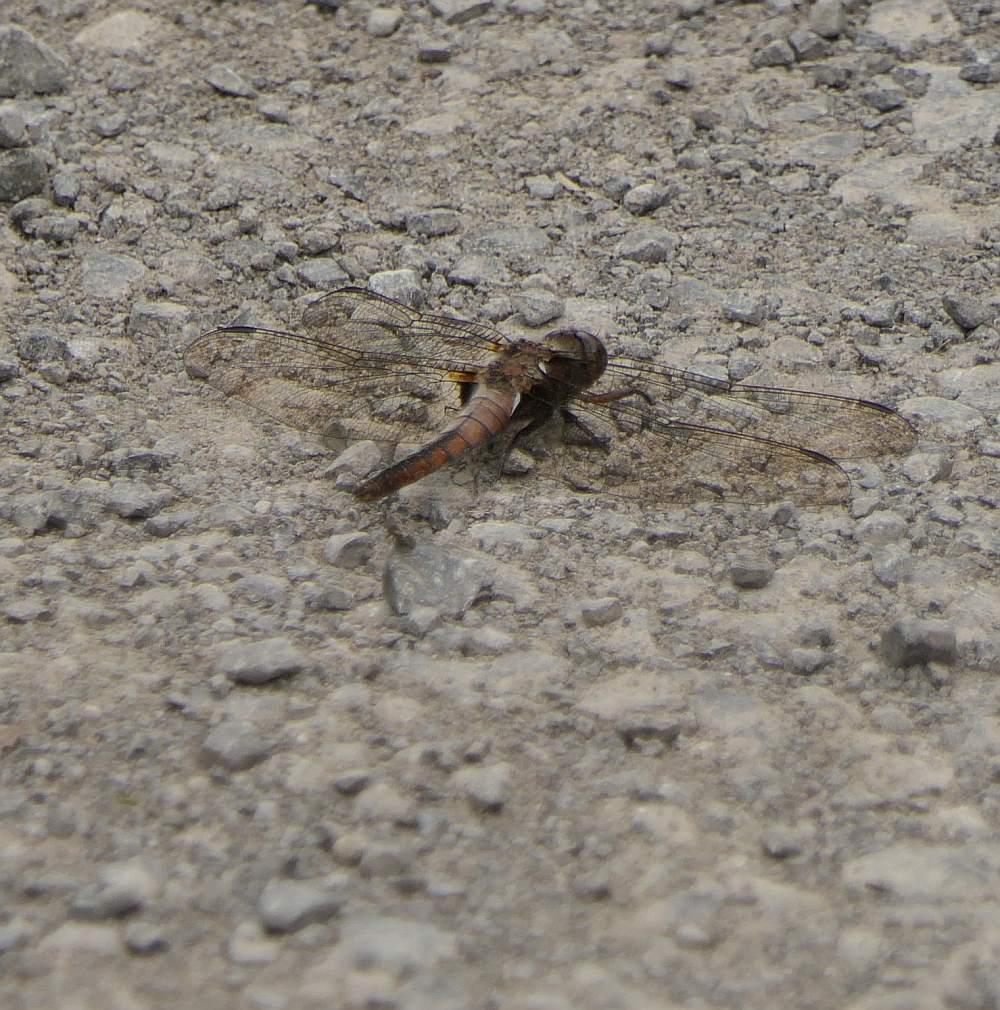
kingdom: Animalia
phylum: Arthropoda
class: Insecta
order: Odonata
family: Libellulidae
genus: Ladona
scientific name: Ladona julia
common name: Chalk-fronted corporal
